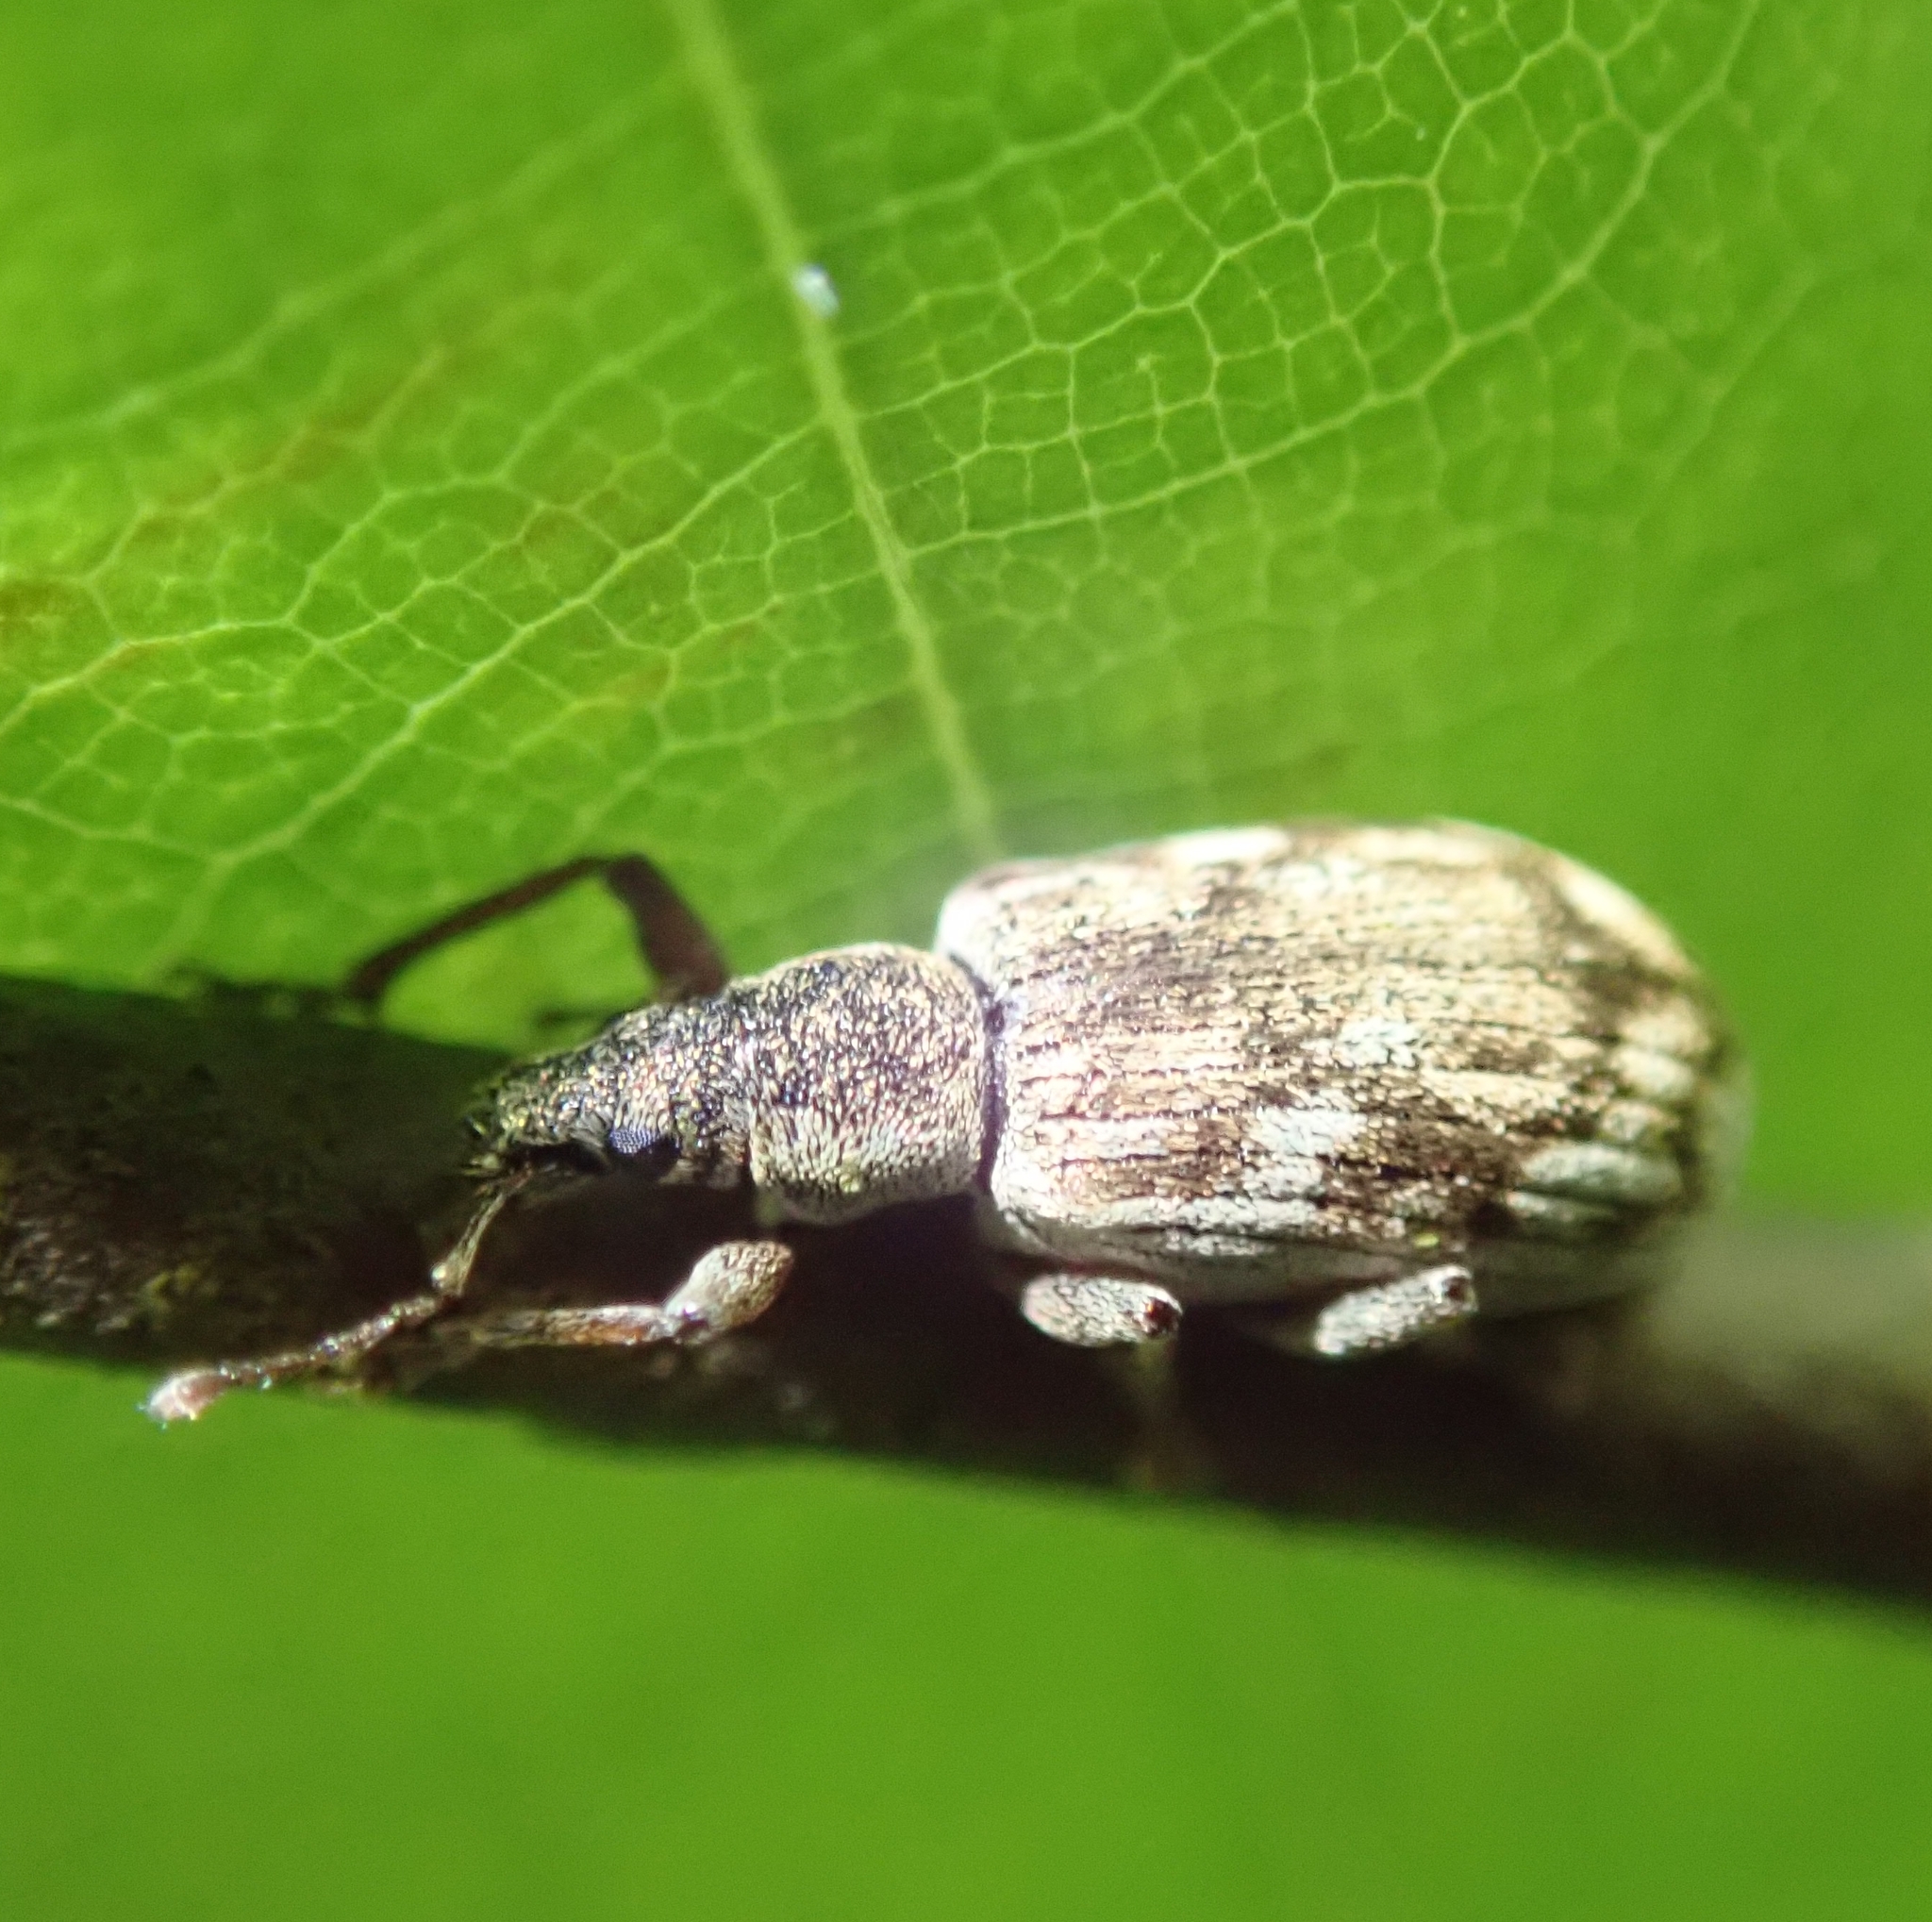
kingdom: Animalia
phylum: Arthropoda
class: Insecta
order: Coleoptera
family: Curculionidae
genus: Polydrusus
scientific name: Polydrusus tereticollis
